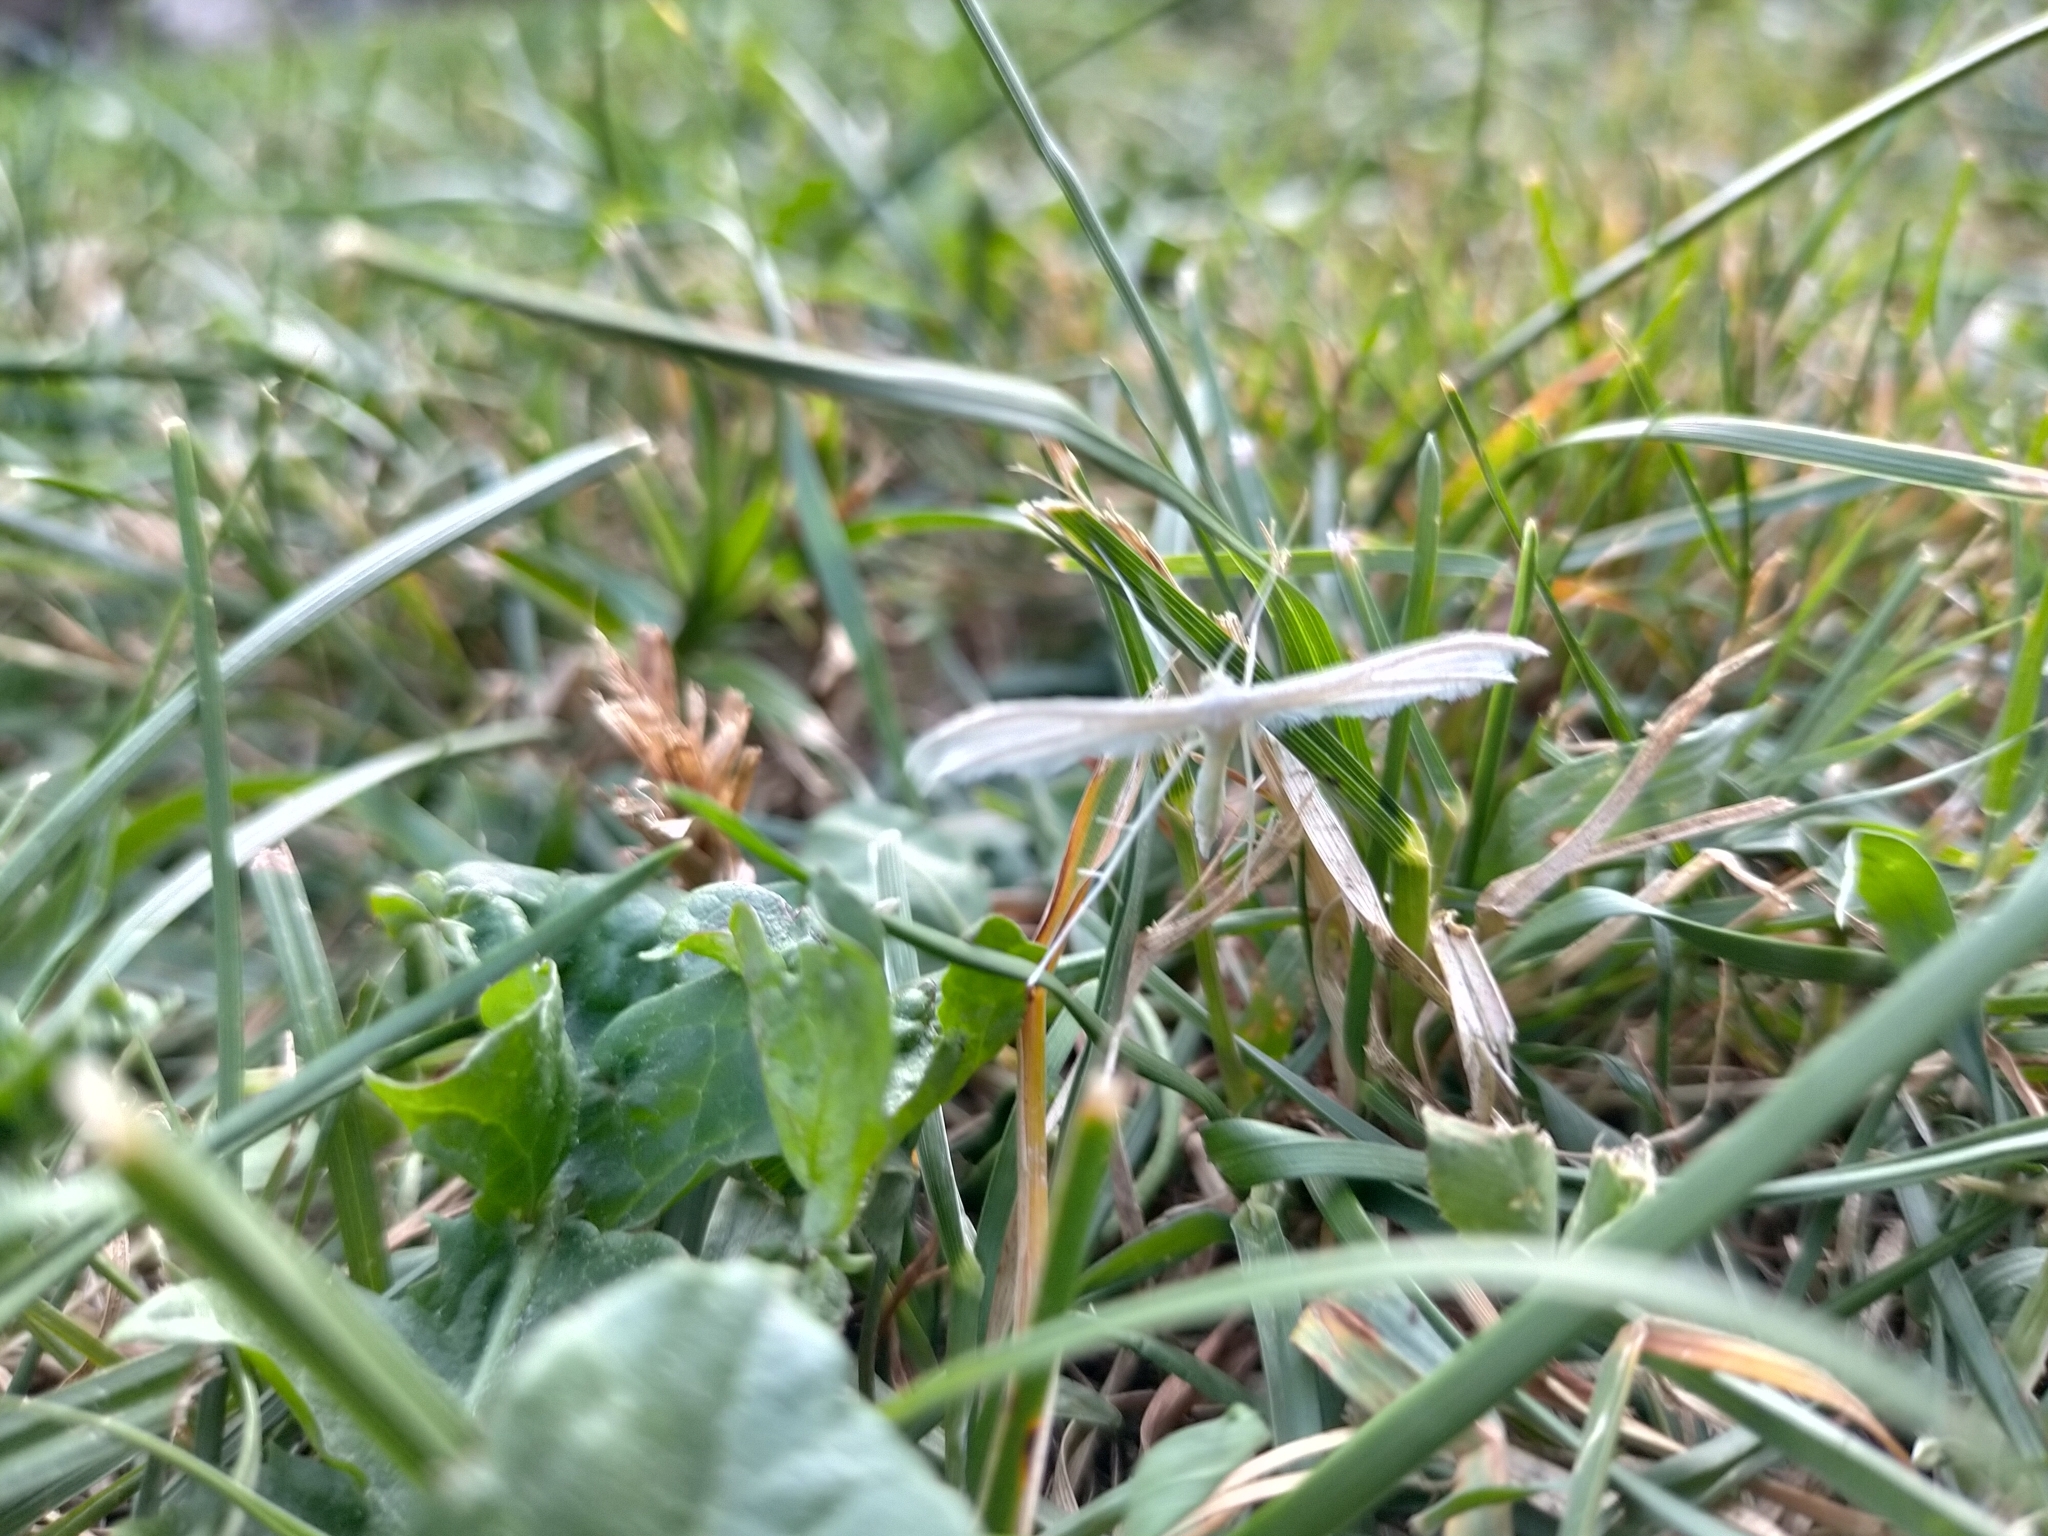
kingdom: Animalia
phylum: Arthropoda
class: Insecta
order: Lepidoptera
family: Pterophoridae
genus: Pterophorus
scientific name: Pterophorus pentadactyla
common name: White plume moth
